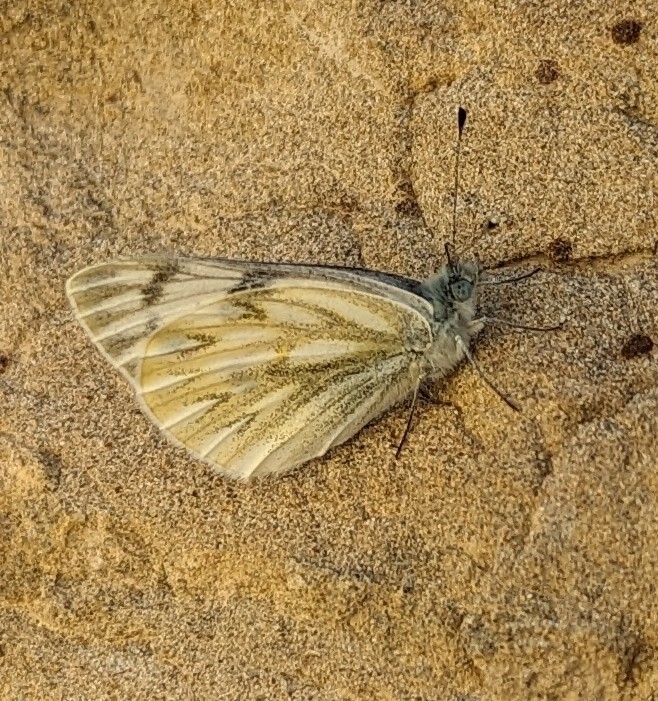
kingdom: Animalia
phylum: Arthropoda
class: Insecta
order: Lepidoptera
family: Pieridae
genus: Pontia
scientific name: Pontia occidentalis
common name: Western white
